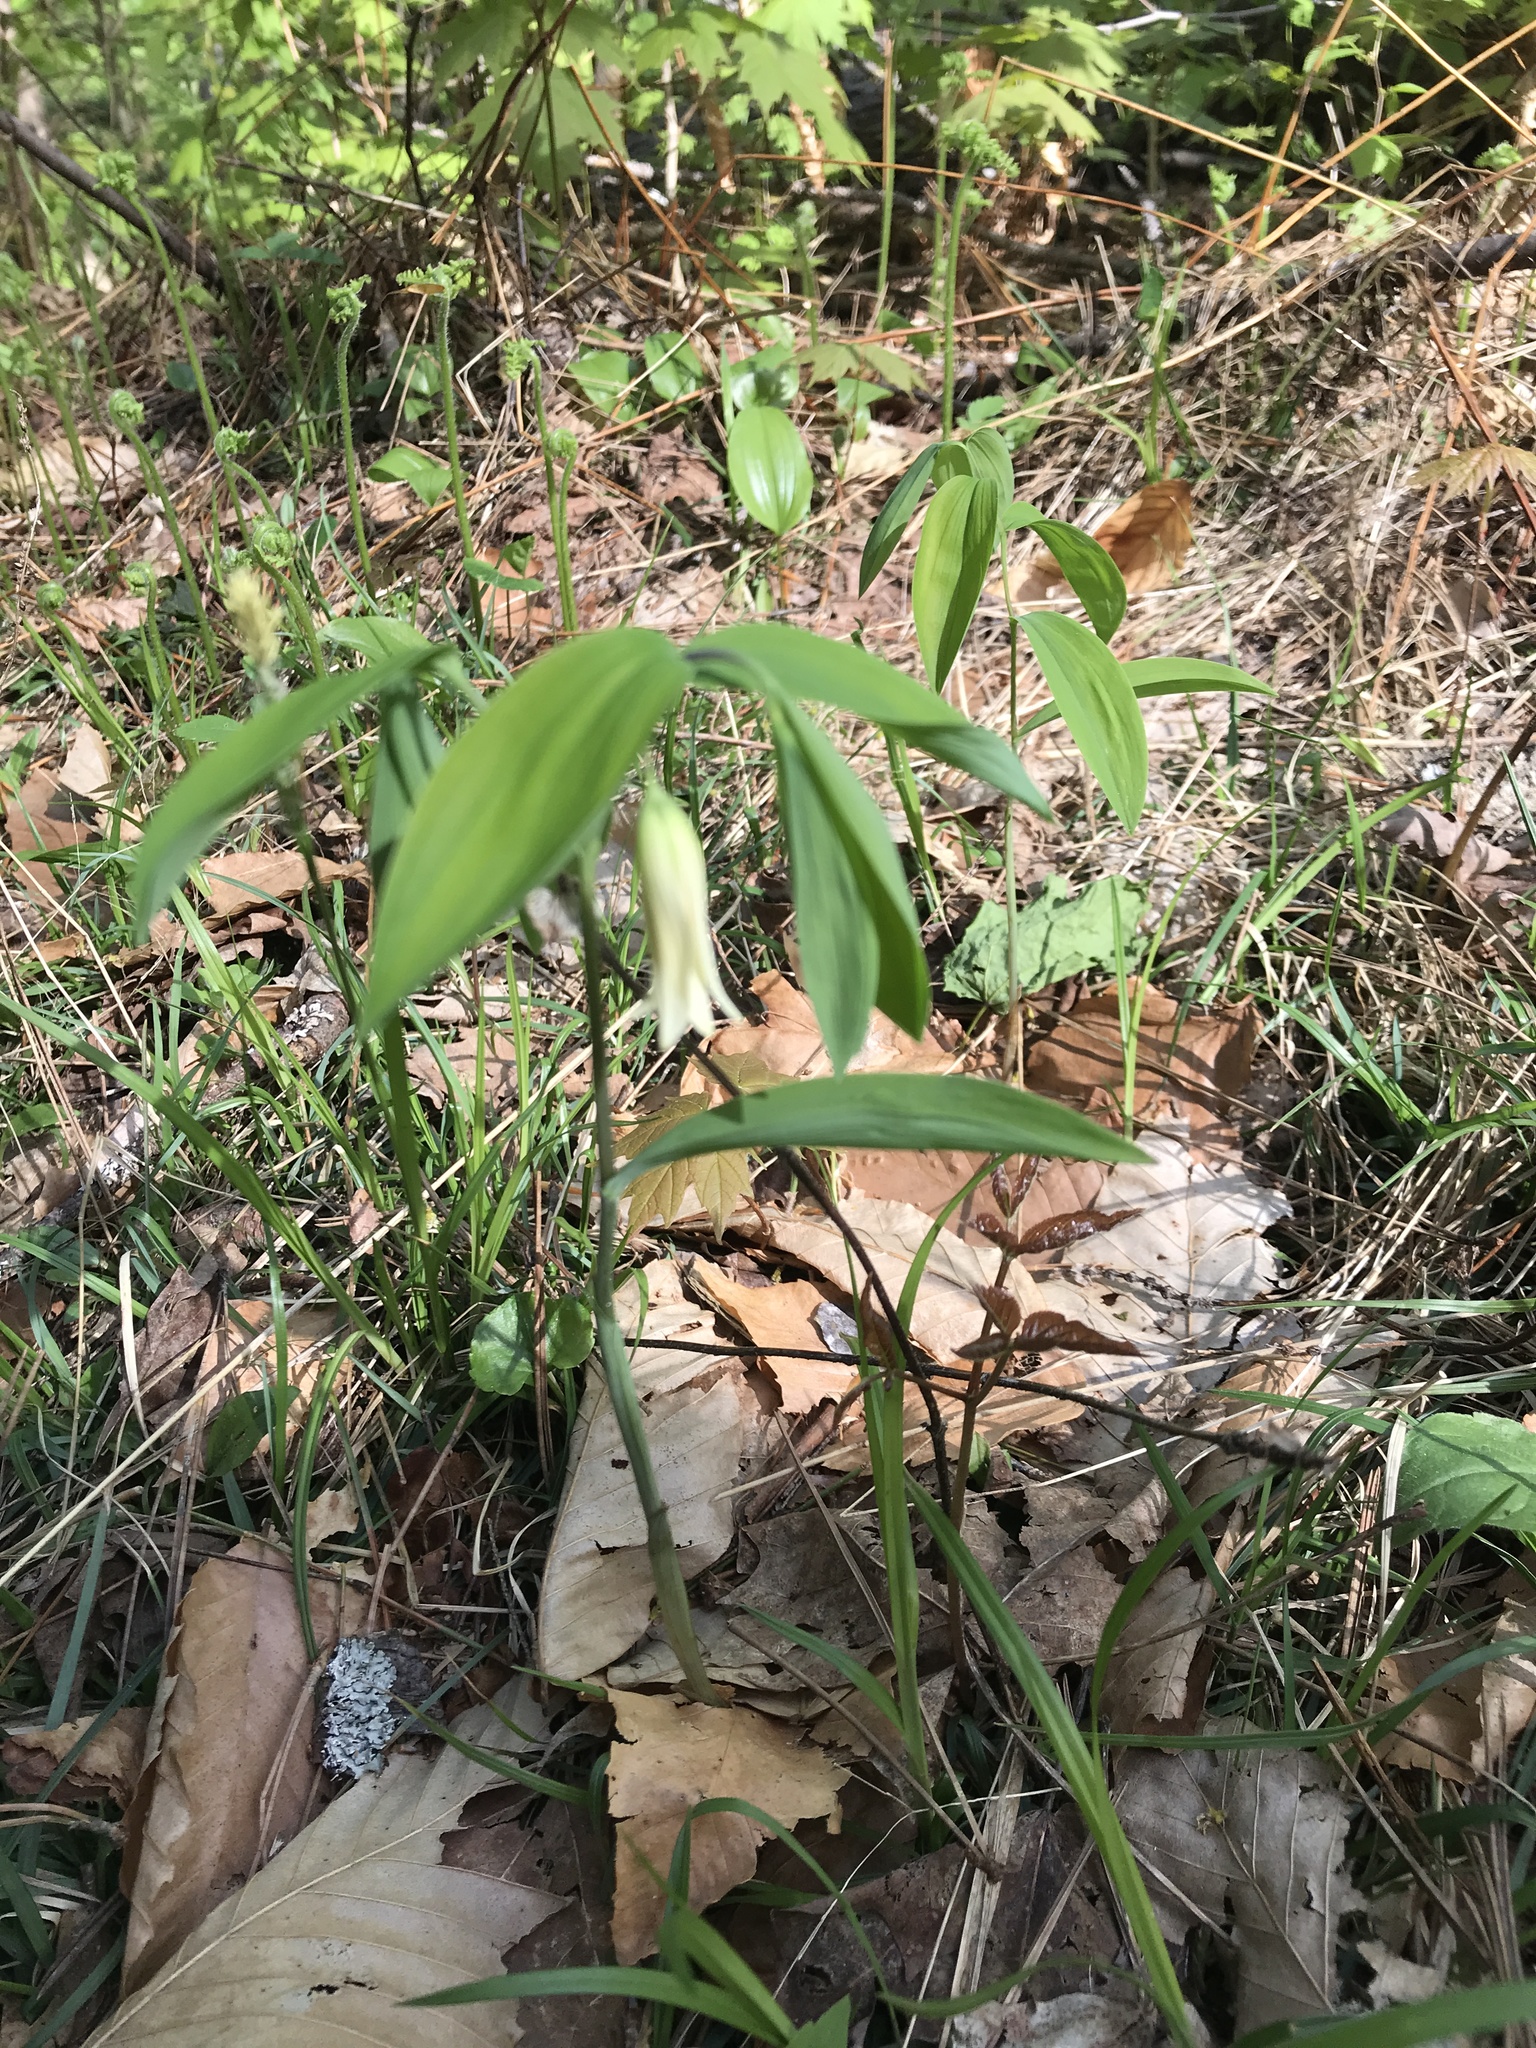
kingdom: Plantae
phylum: Tracheophyta
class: Liliopsida
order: Liliales
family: Colchicaceae
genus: Uvularia
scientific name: Uvularia sessilifolia
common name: Straw-lily
